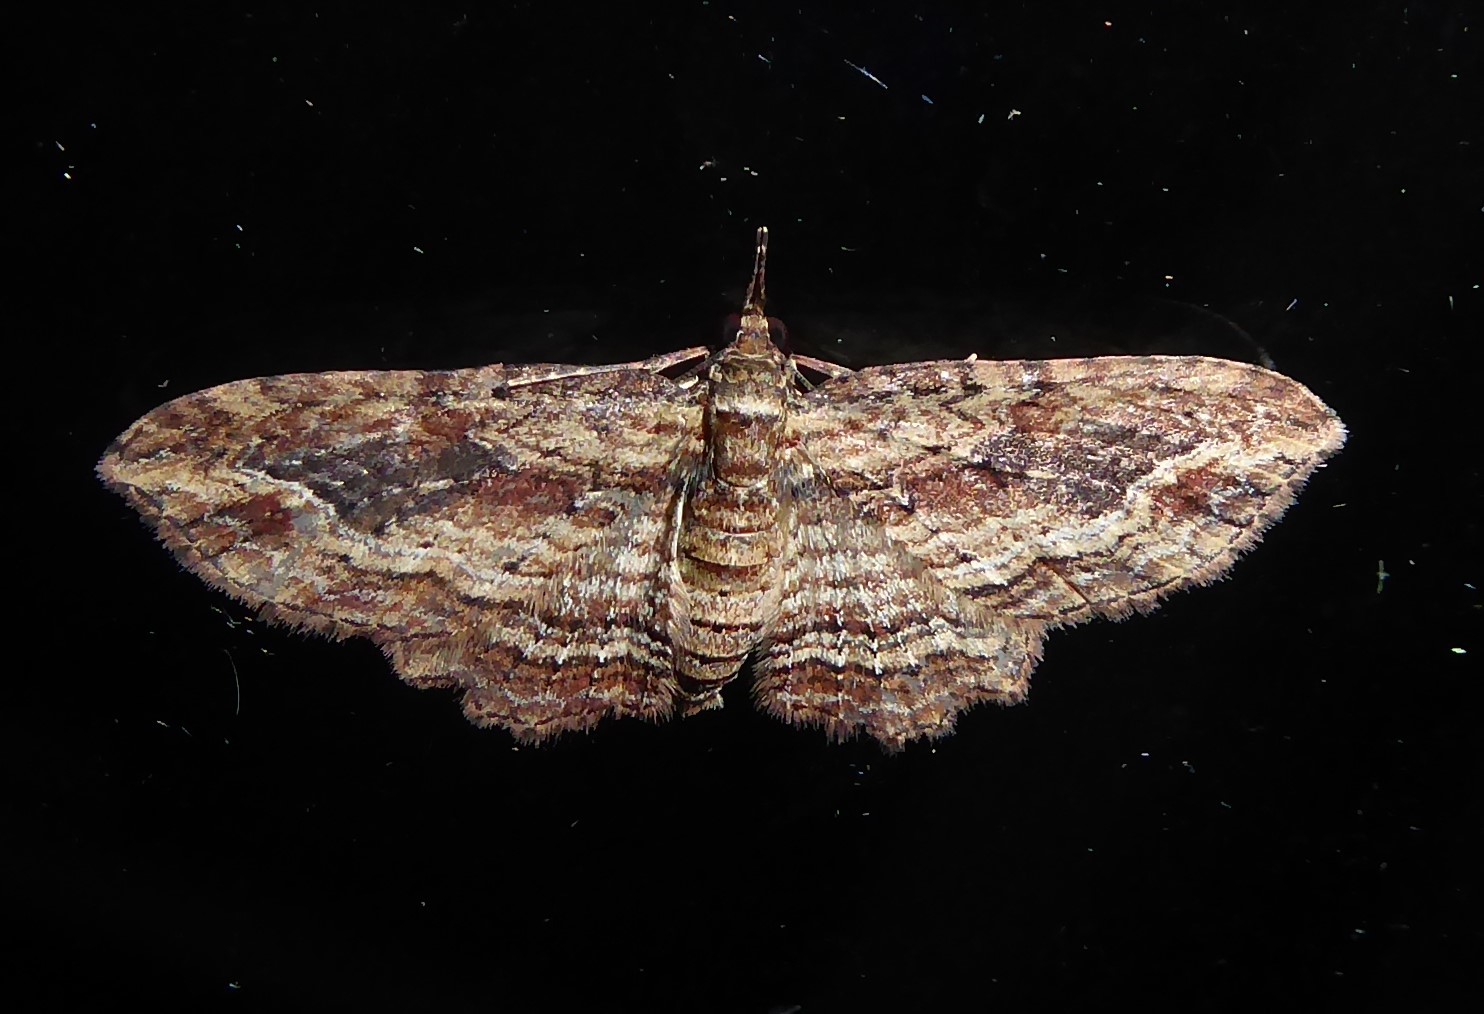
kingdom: Animalia
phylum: Arthropoda
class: Insecta
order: Lepidoptera
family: Geometridae
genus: Chloroclystis
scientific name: Chloroclystis filata
